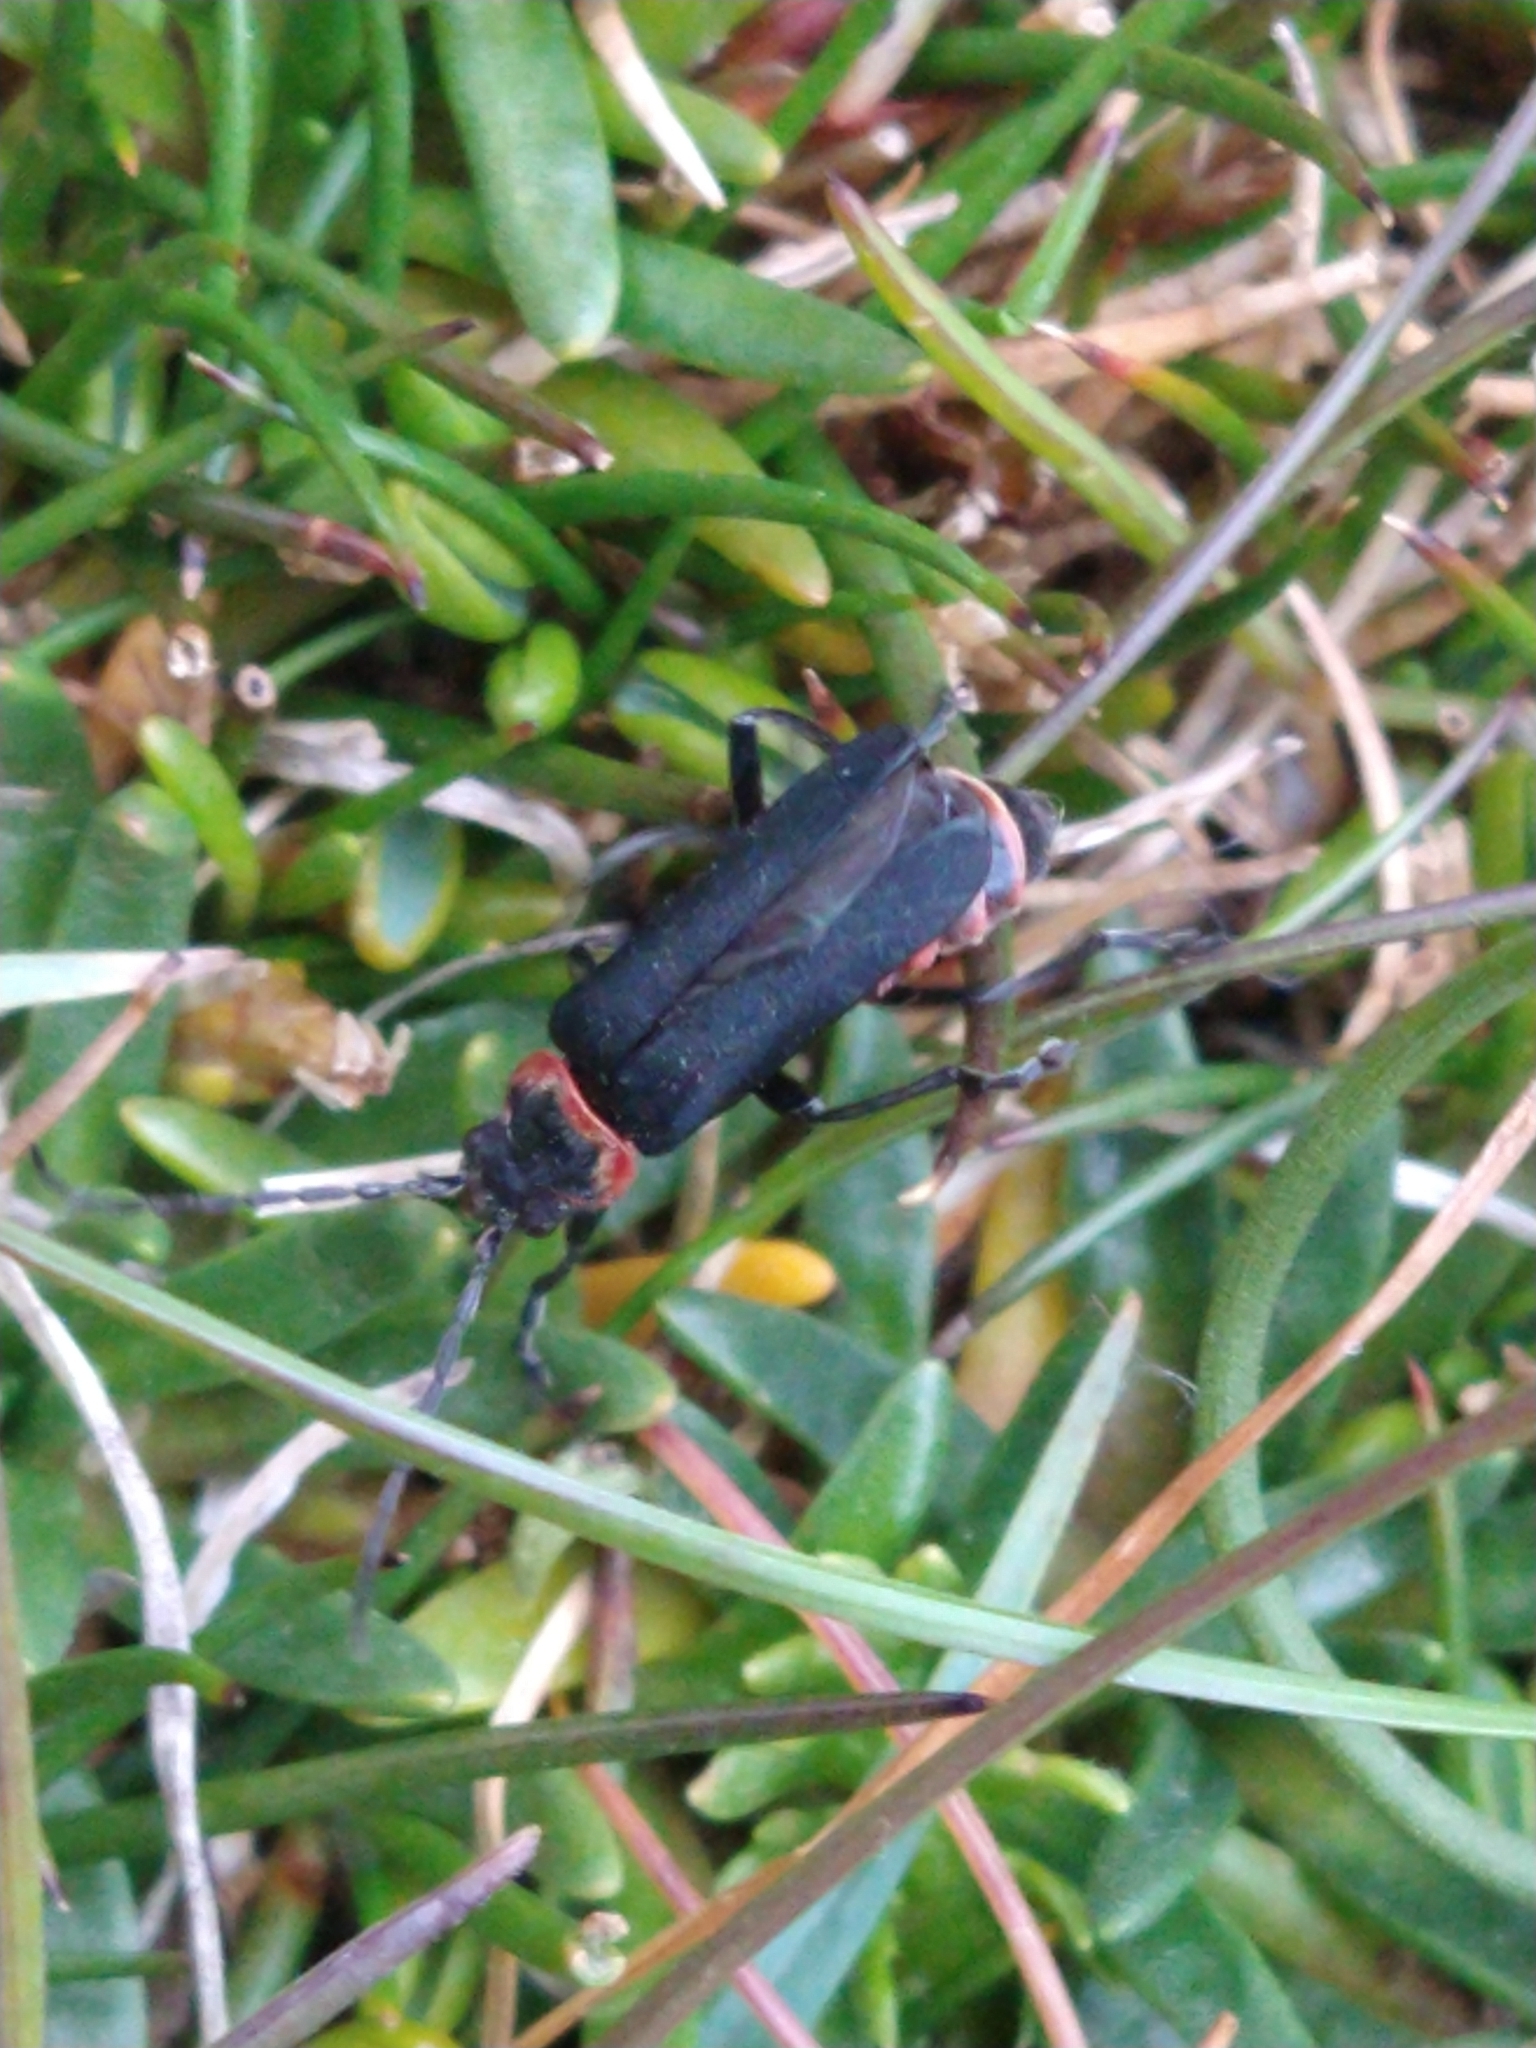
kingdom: Animalia
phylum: Arthropoda
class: Insecta
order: Coleoptera
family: Cantharidae
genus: Chauliognathus
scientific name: Chauliognathus
